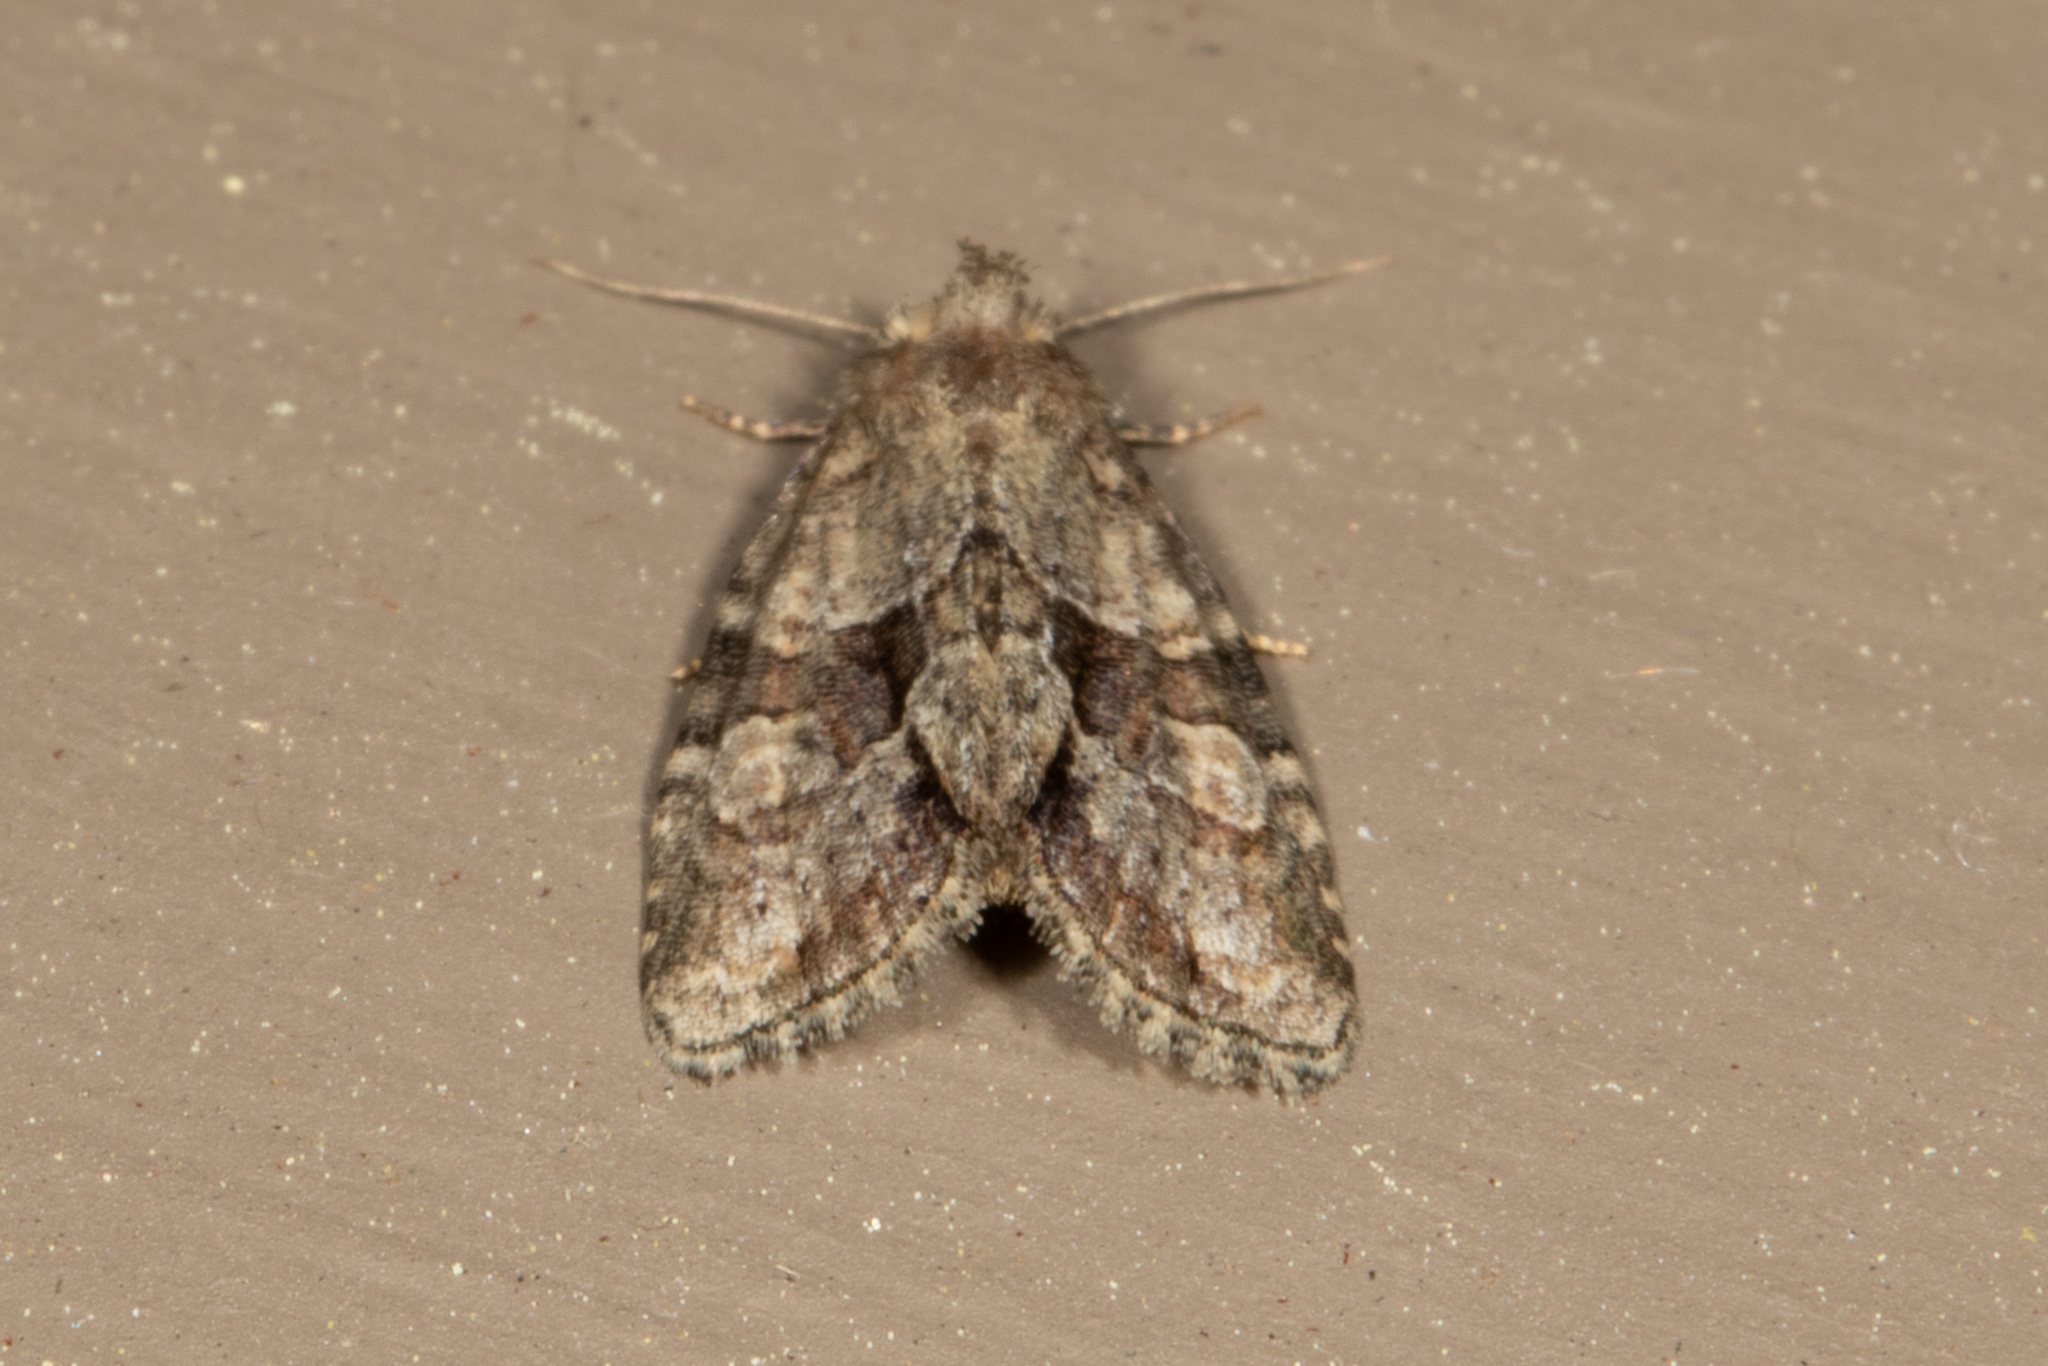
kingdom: Animalia
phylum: Arthropoda
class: Insecta
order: Lepidoptera
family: Noctuidae
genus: Neoligia
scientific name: Neoligia exhausta
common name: Exhausted brocade
